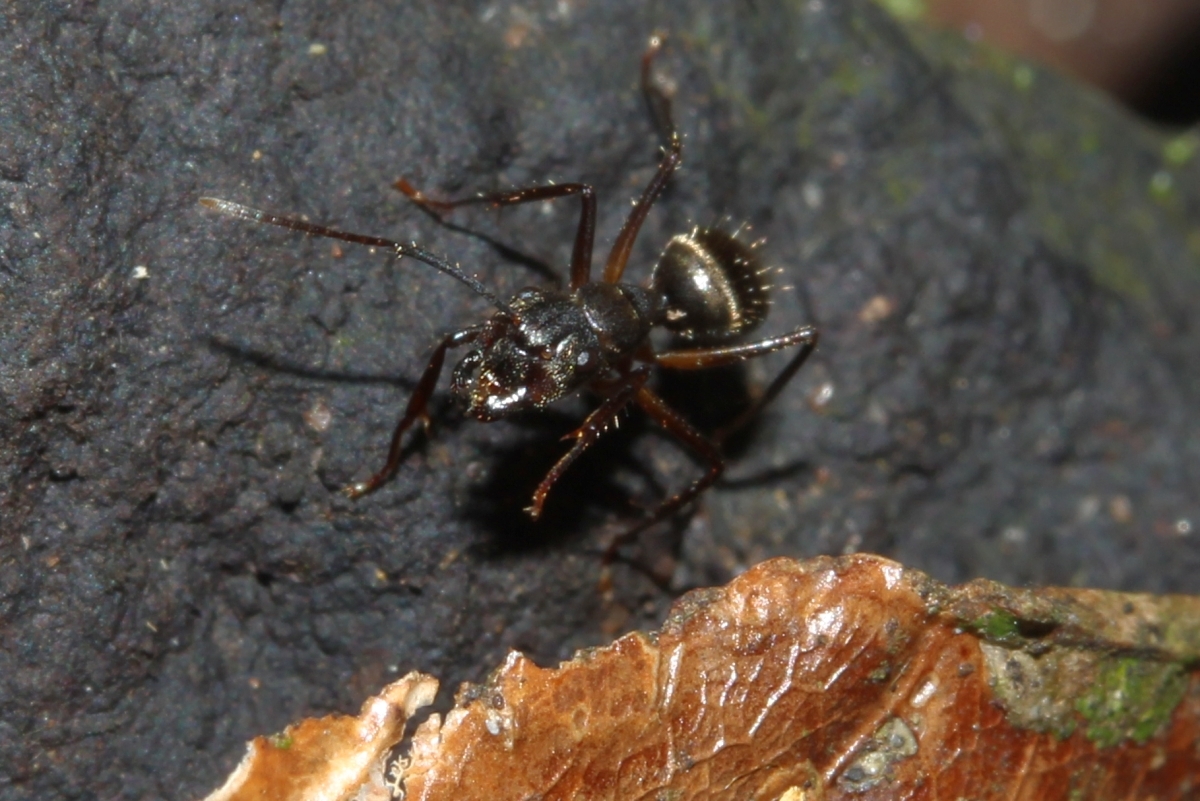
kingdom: Animalia
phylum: Arthropoda
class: Insecta
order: Hymenoptera
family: Formicidae
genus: Camponotus
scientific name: Camponotus femoratus
